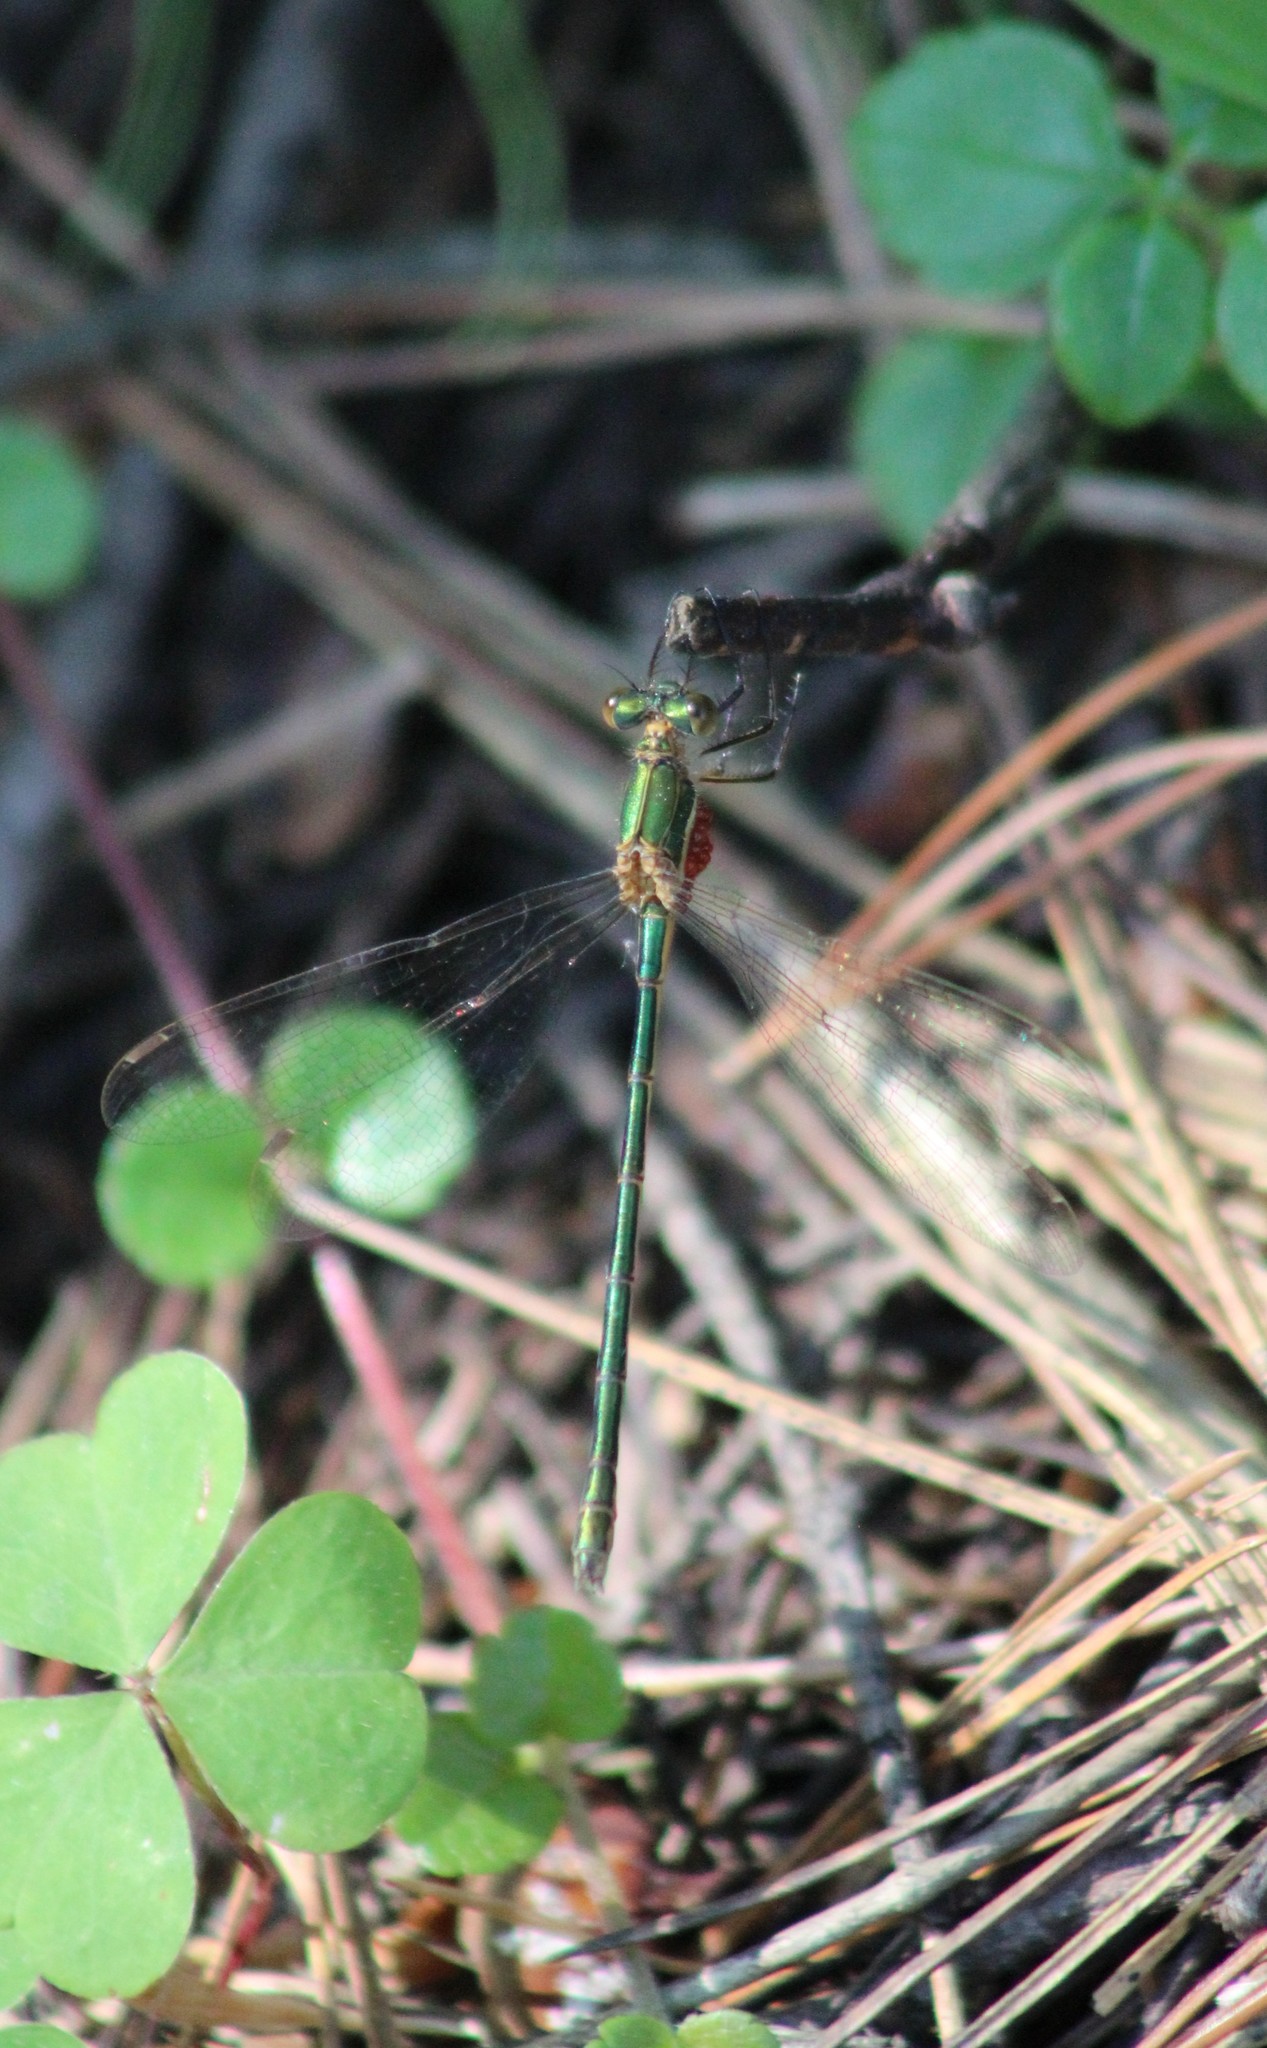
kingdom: Animalia
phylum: Arthropoda
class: Insecta
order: Odonata
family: Lestidae
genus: Lestes
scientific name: Lestes virens
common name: Small emerald spreadwing
